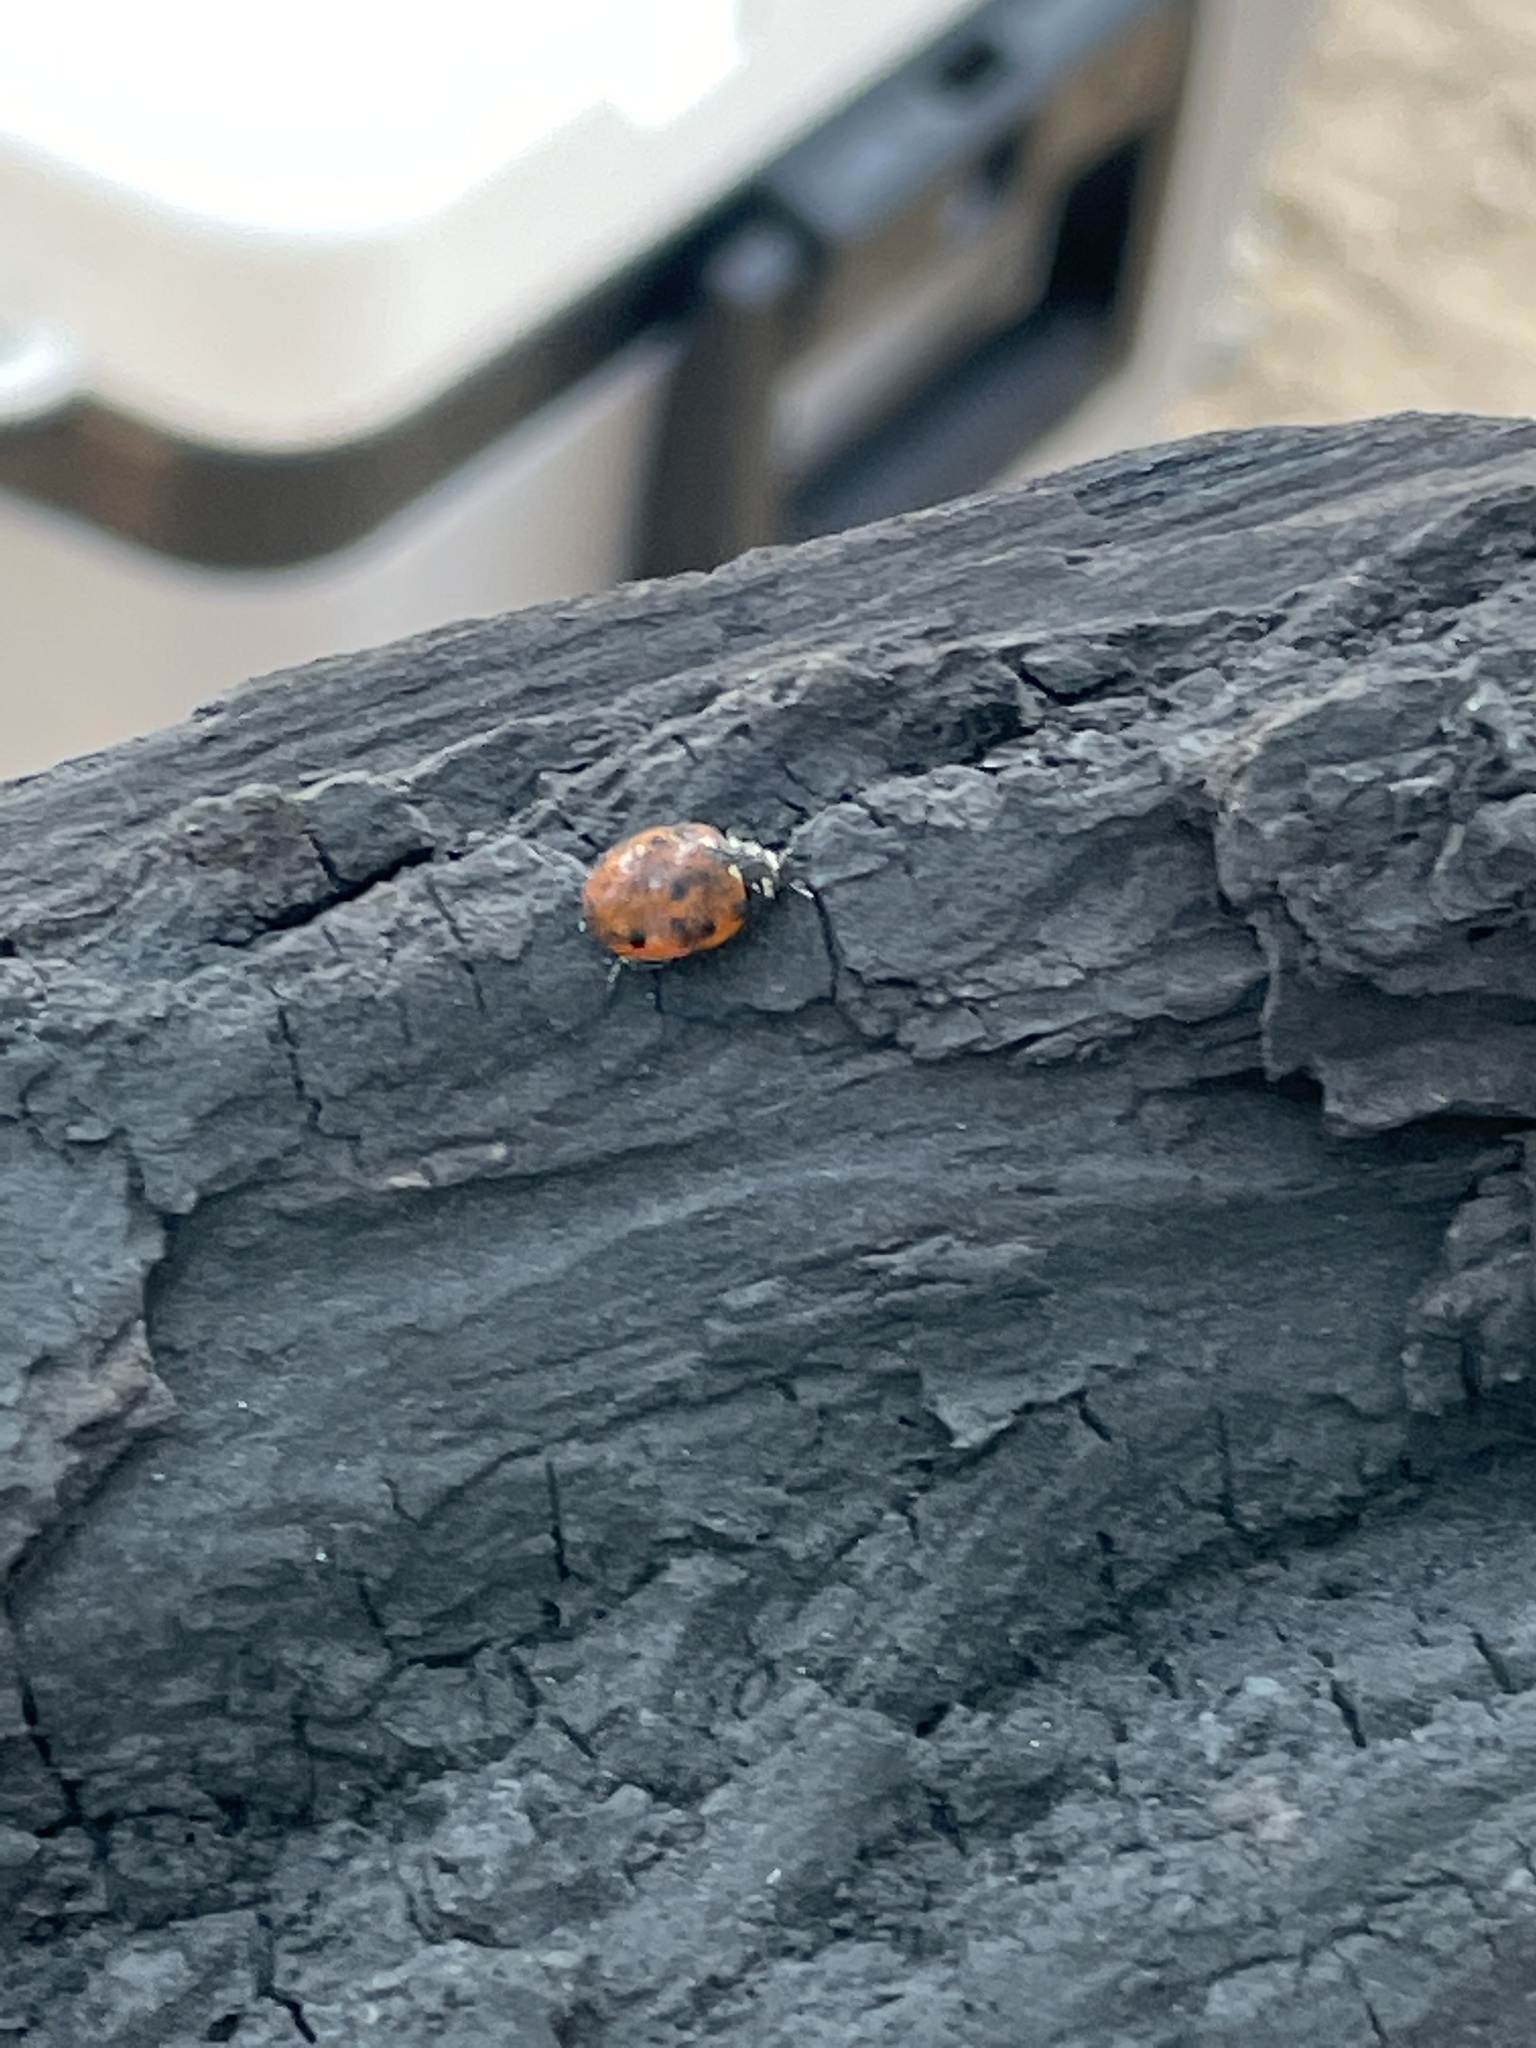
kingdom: Animalia
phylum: Arthropoda
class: Insecta
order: Coleoptera
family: Coccinellidae
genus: Coccinella
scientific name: Coccinella septempunctata
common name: Sevenspotted lady beetle
